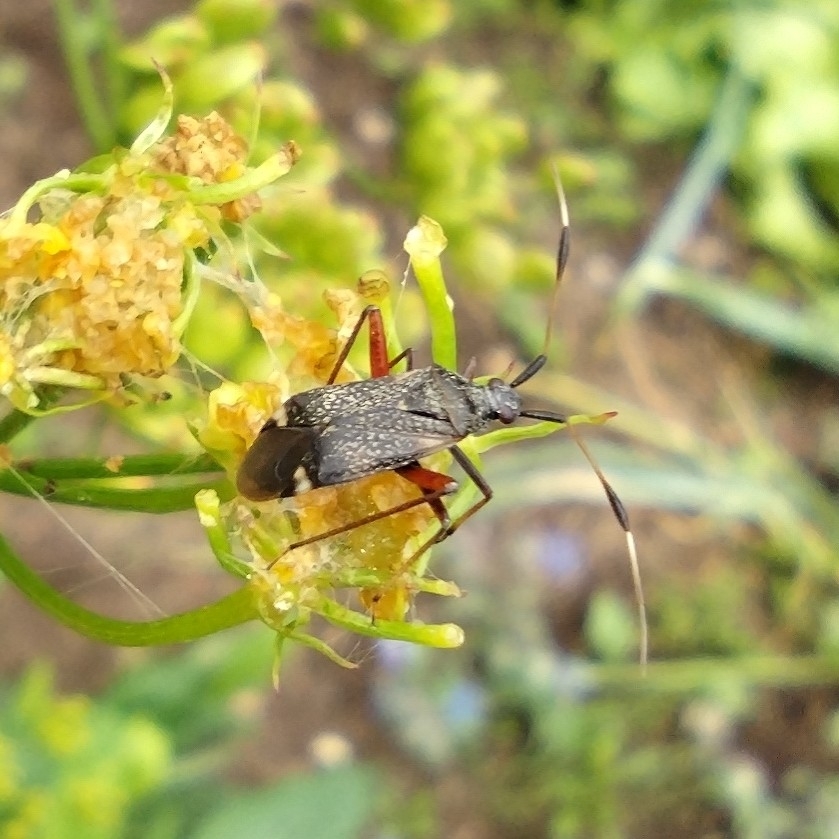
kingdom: Animalia
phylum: Arthropoda
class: Insecta
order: Hemiptera
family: Miridae
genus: Closterotomus
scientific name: Closterotomus biclavatus
